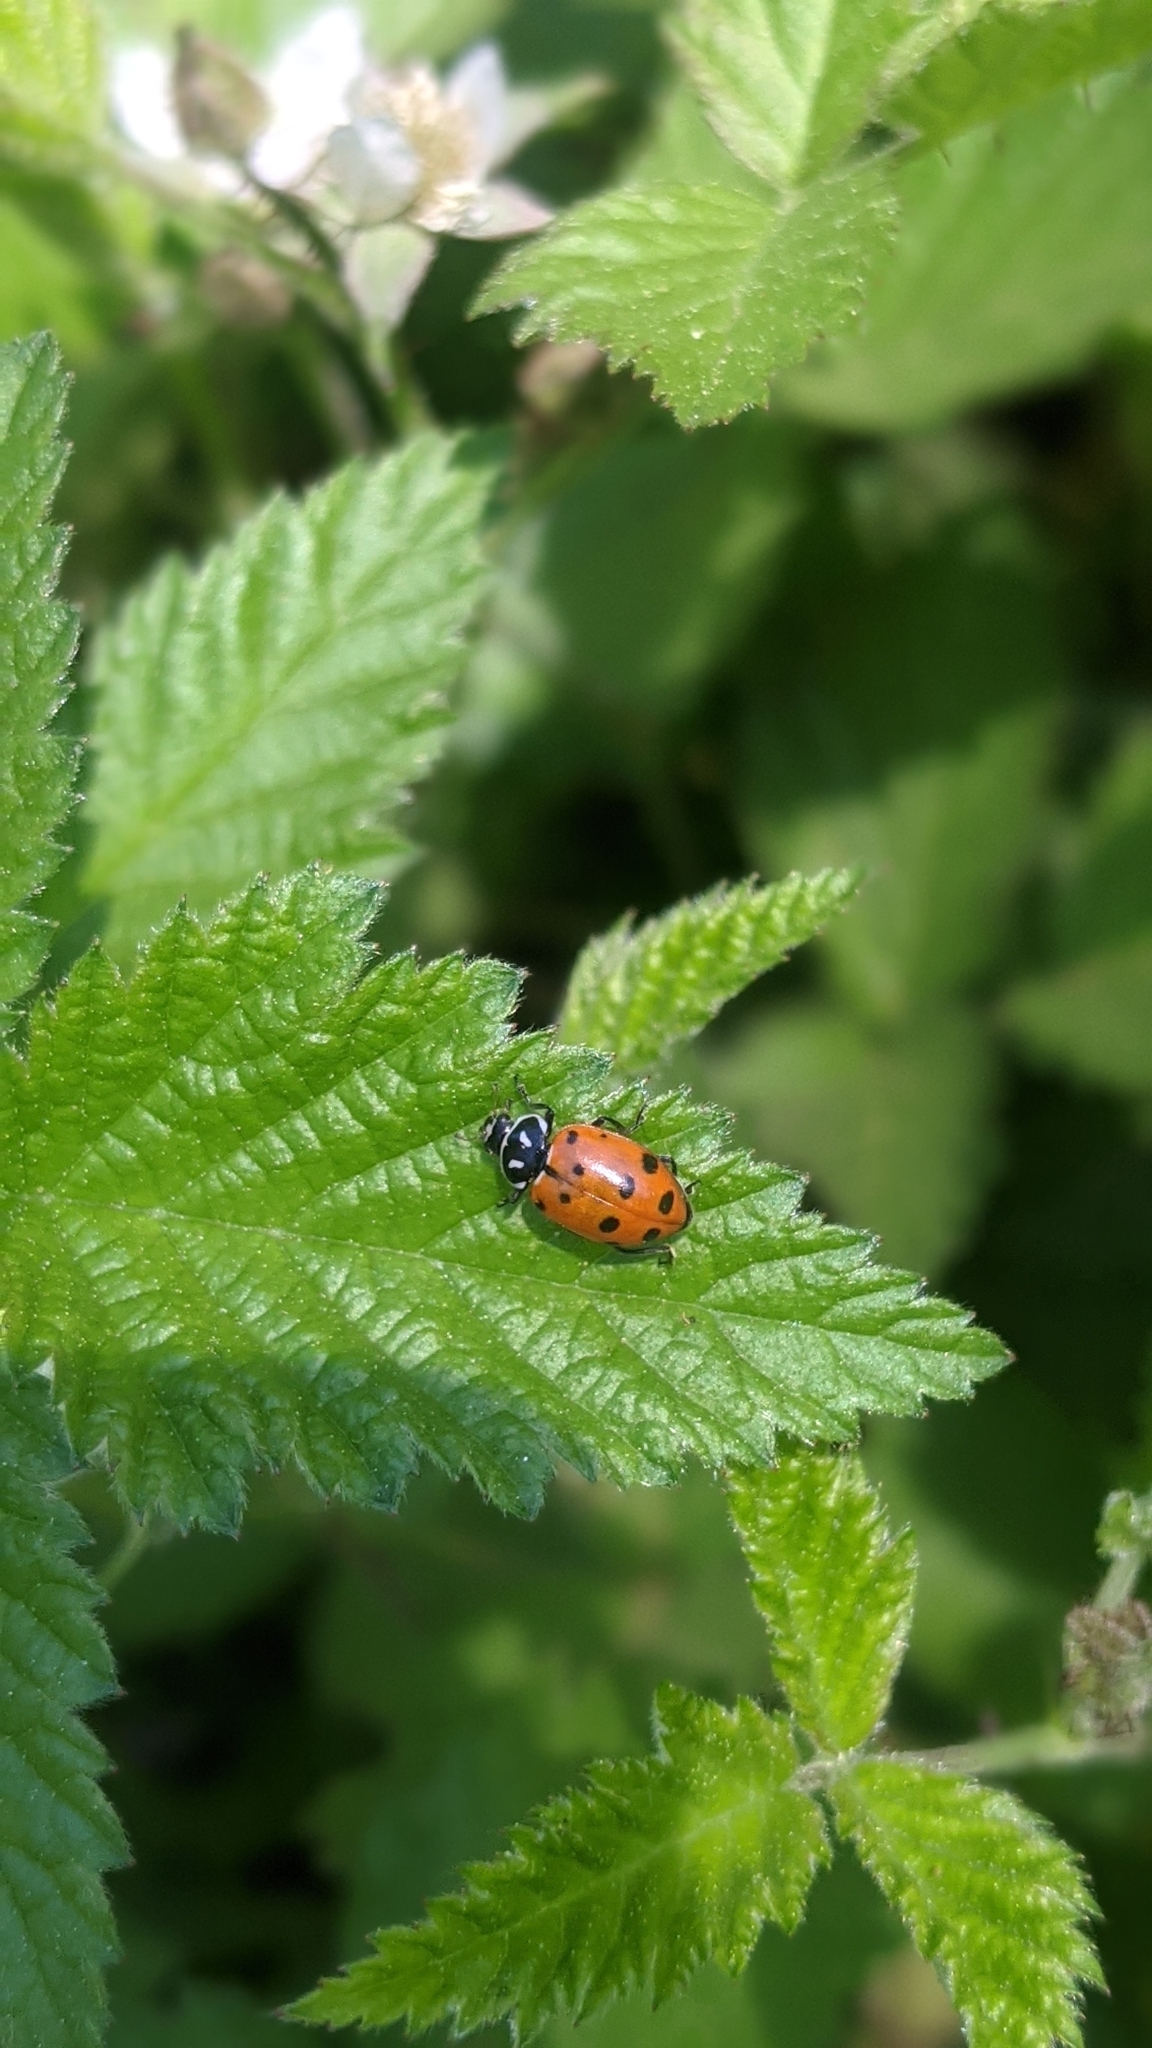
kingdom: Animalia
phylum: Arthropoda
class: Insecta
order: Coleoptera
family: Coccinellidae
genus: Hippodamia
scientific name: Hippodamia convergens
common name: Convergent lady beetle
